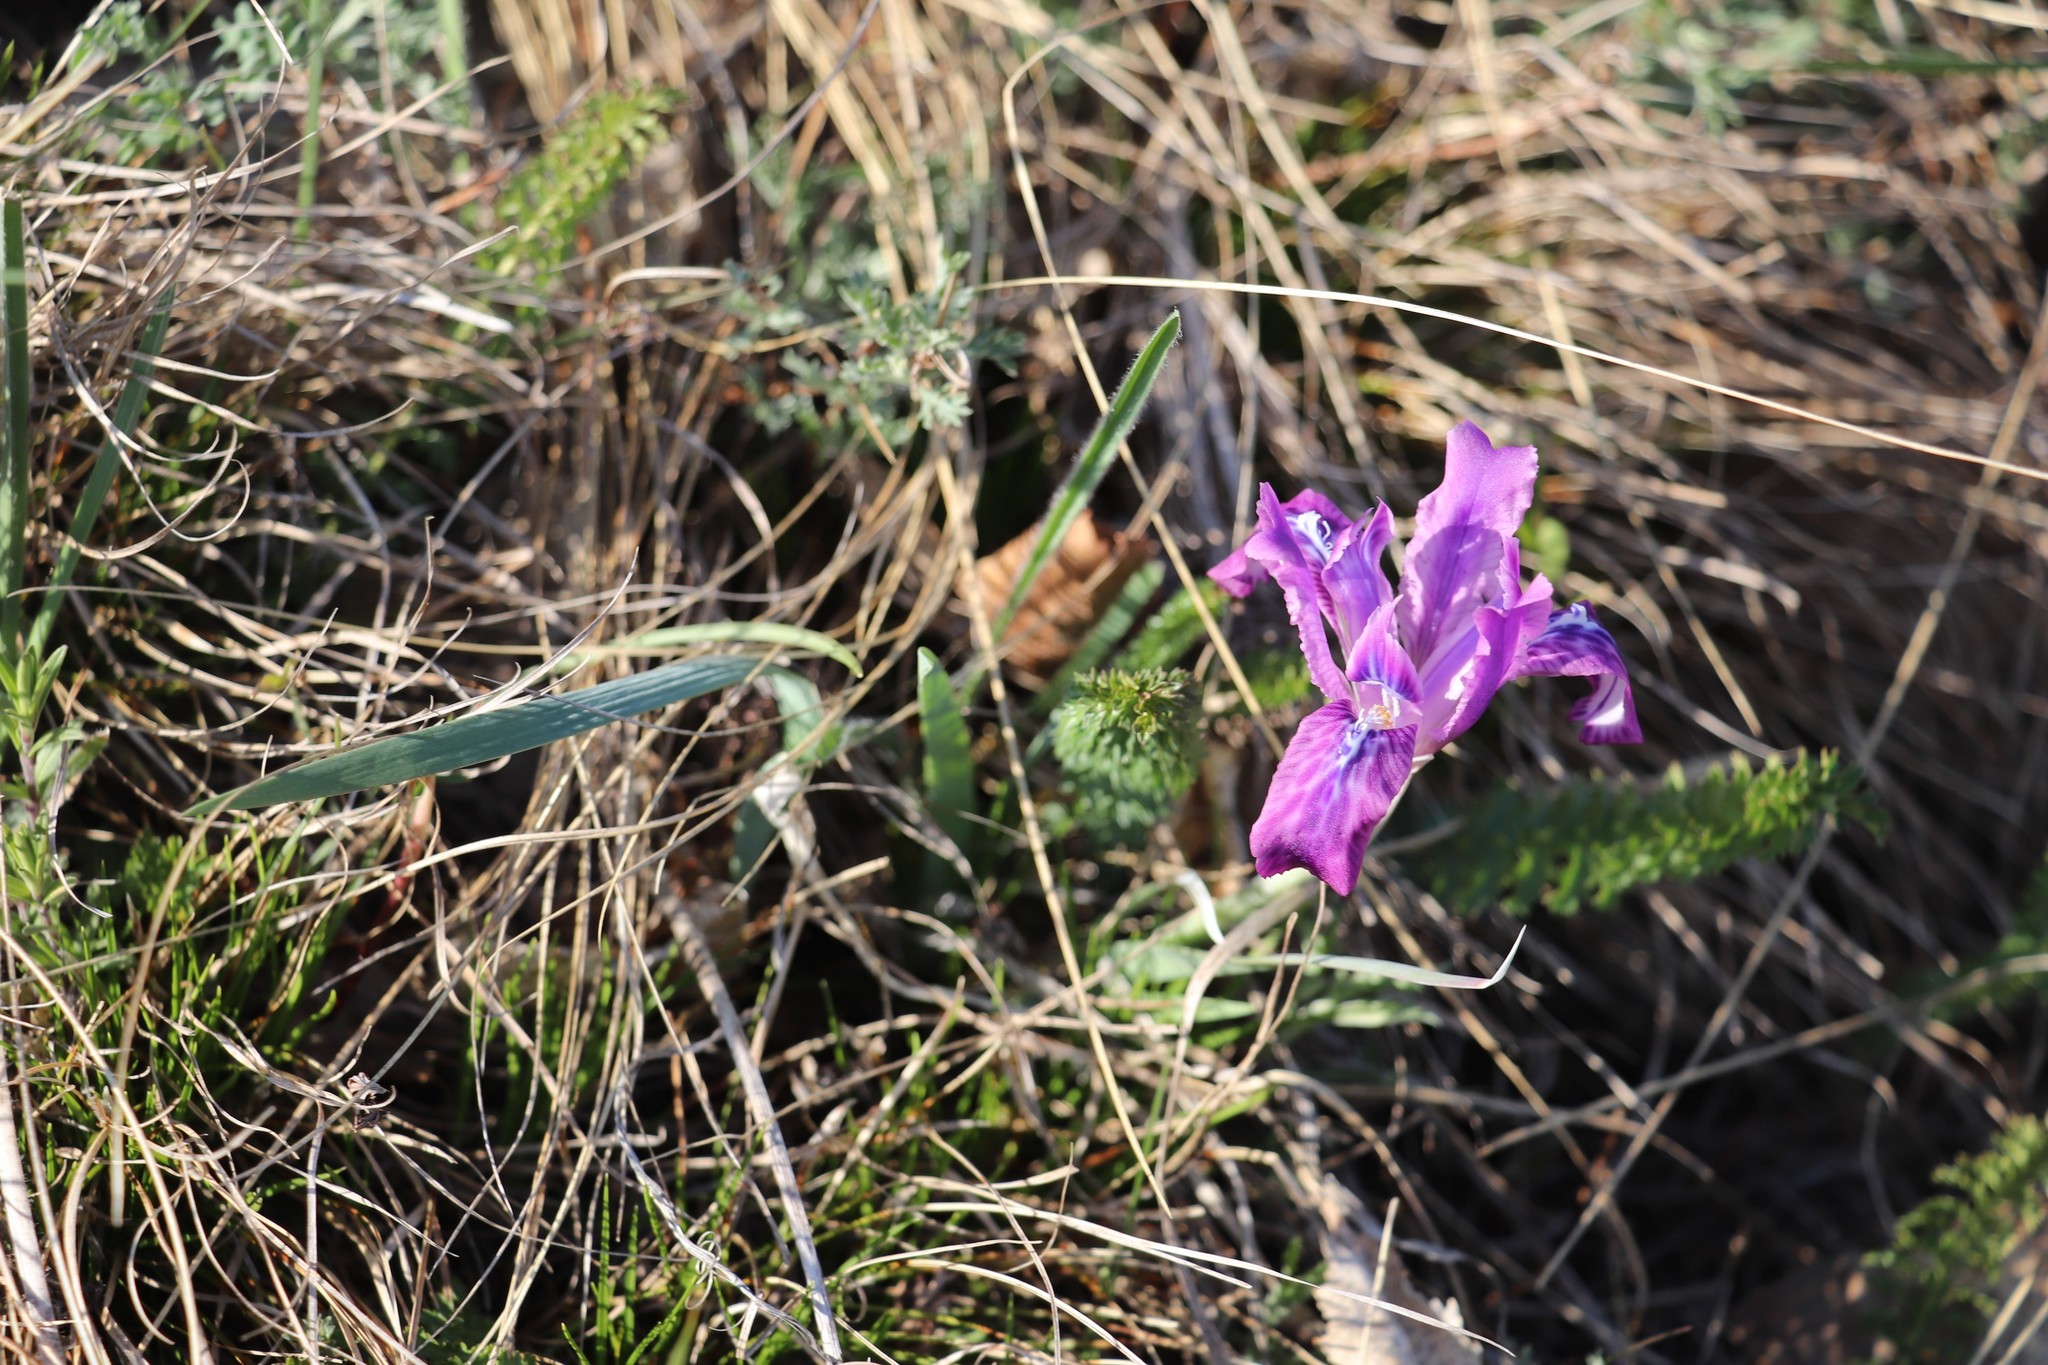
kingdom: Plantae
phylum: Tracheophyta
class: Liliopsida
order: Asparagales
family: Iridaceae
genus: Iris
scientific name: Iris tigridia
